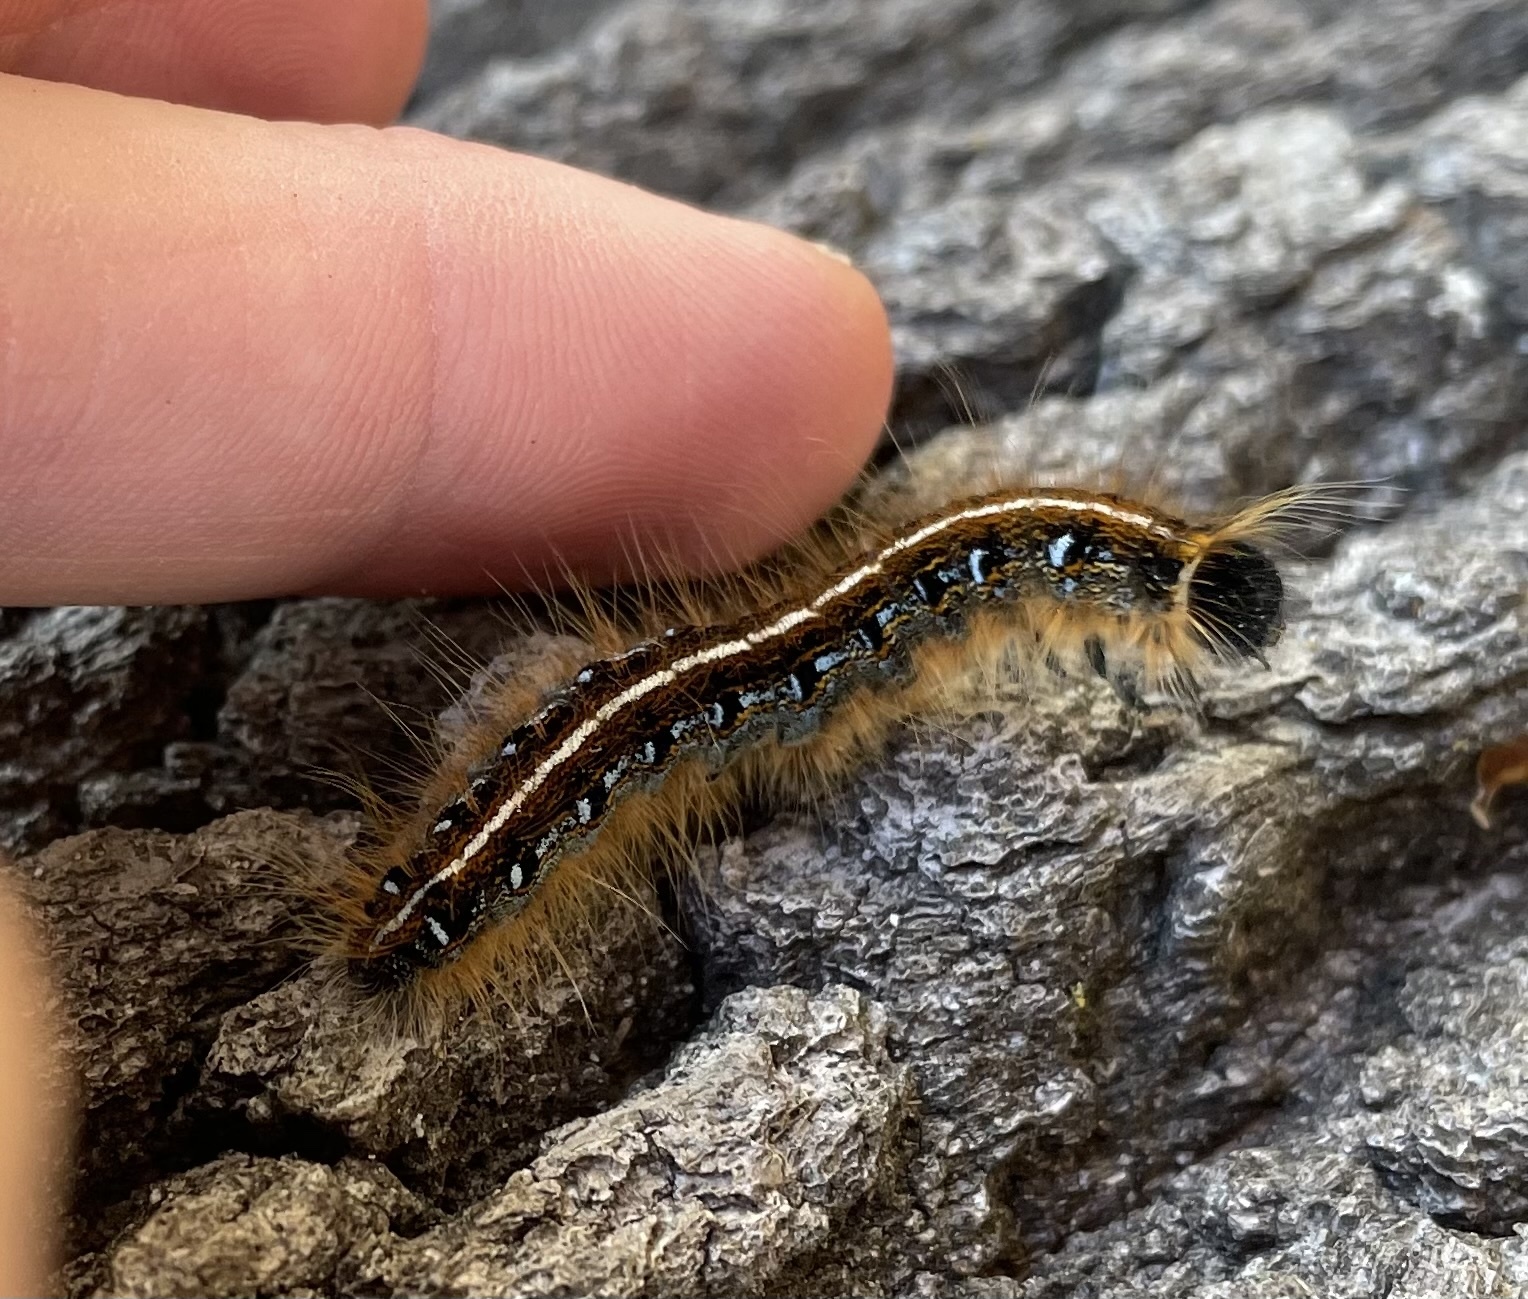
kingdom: Animalia
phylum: Arthropoda
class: Insecta
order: Lepidoptera
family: Lasiocampidae
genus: Malacosoma
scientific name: Malacosoma americana
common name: Eastern tent caterpillar moth
